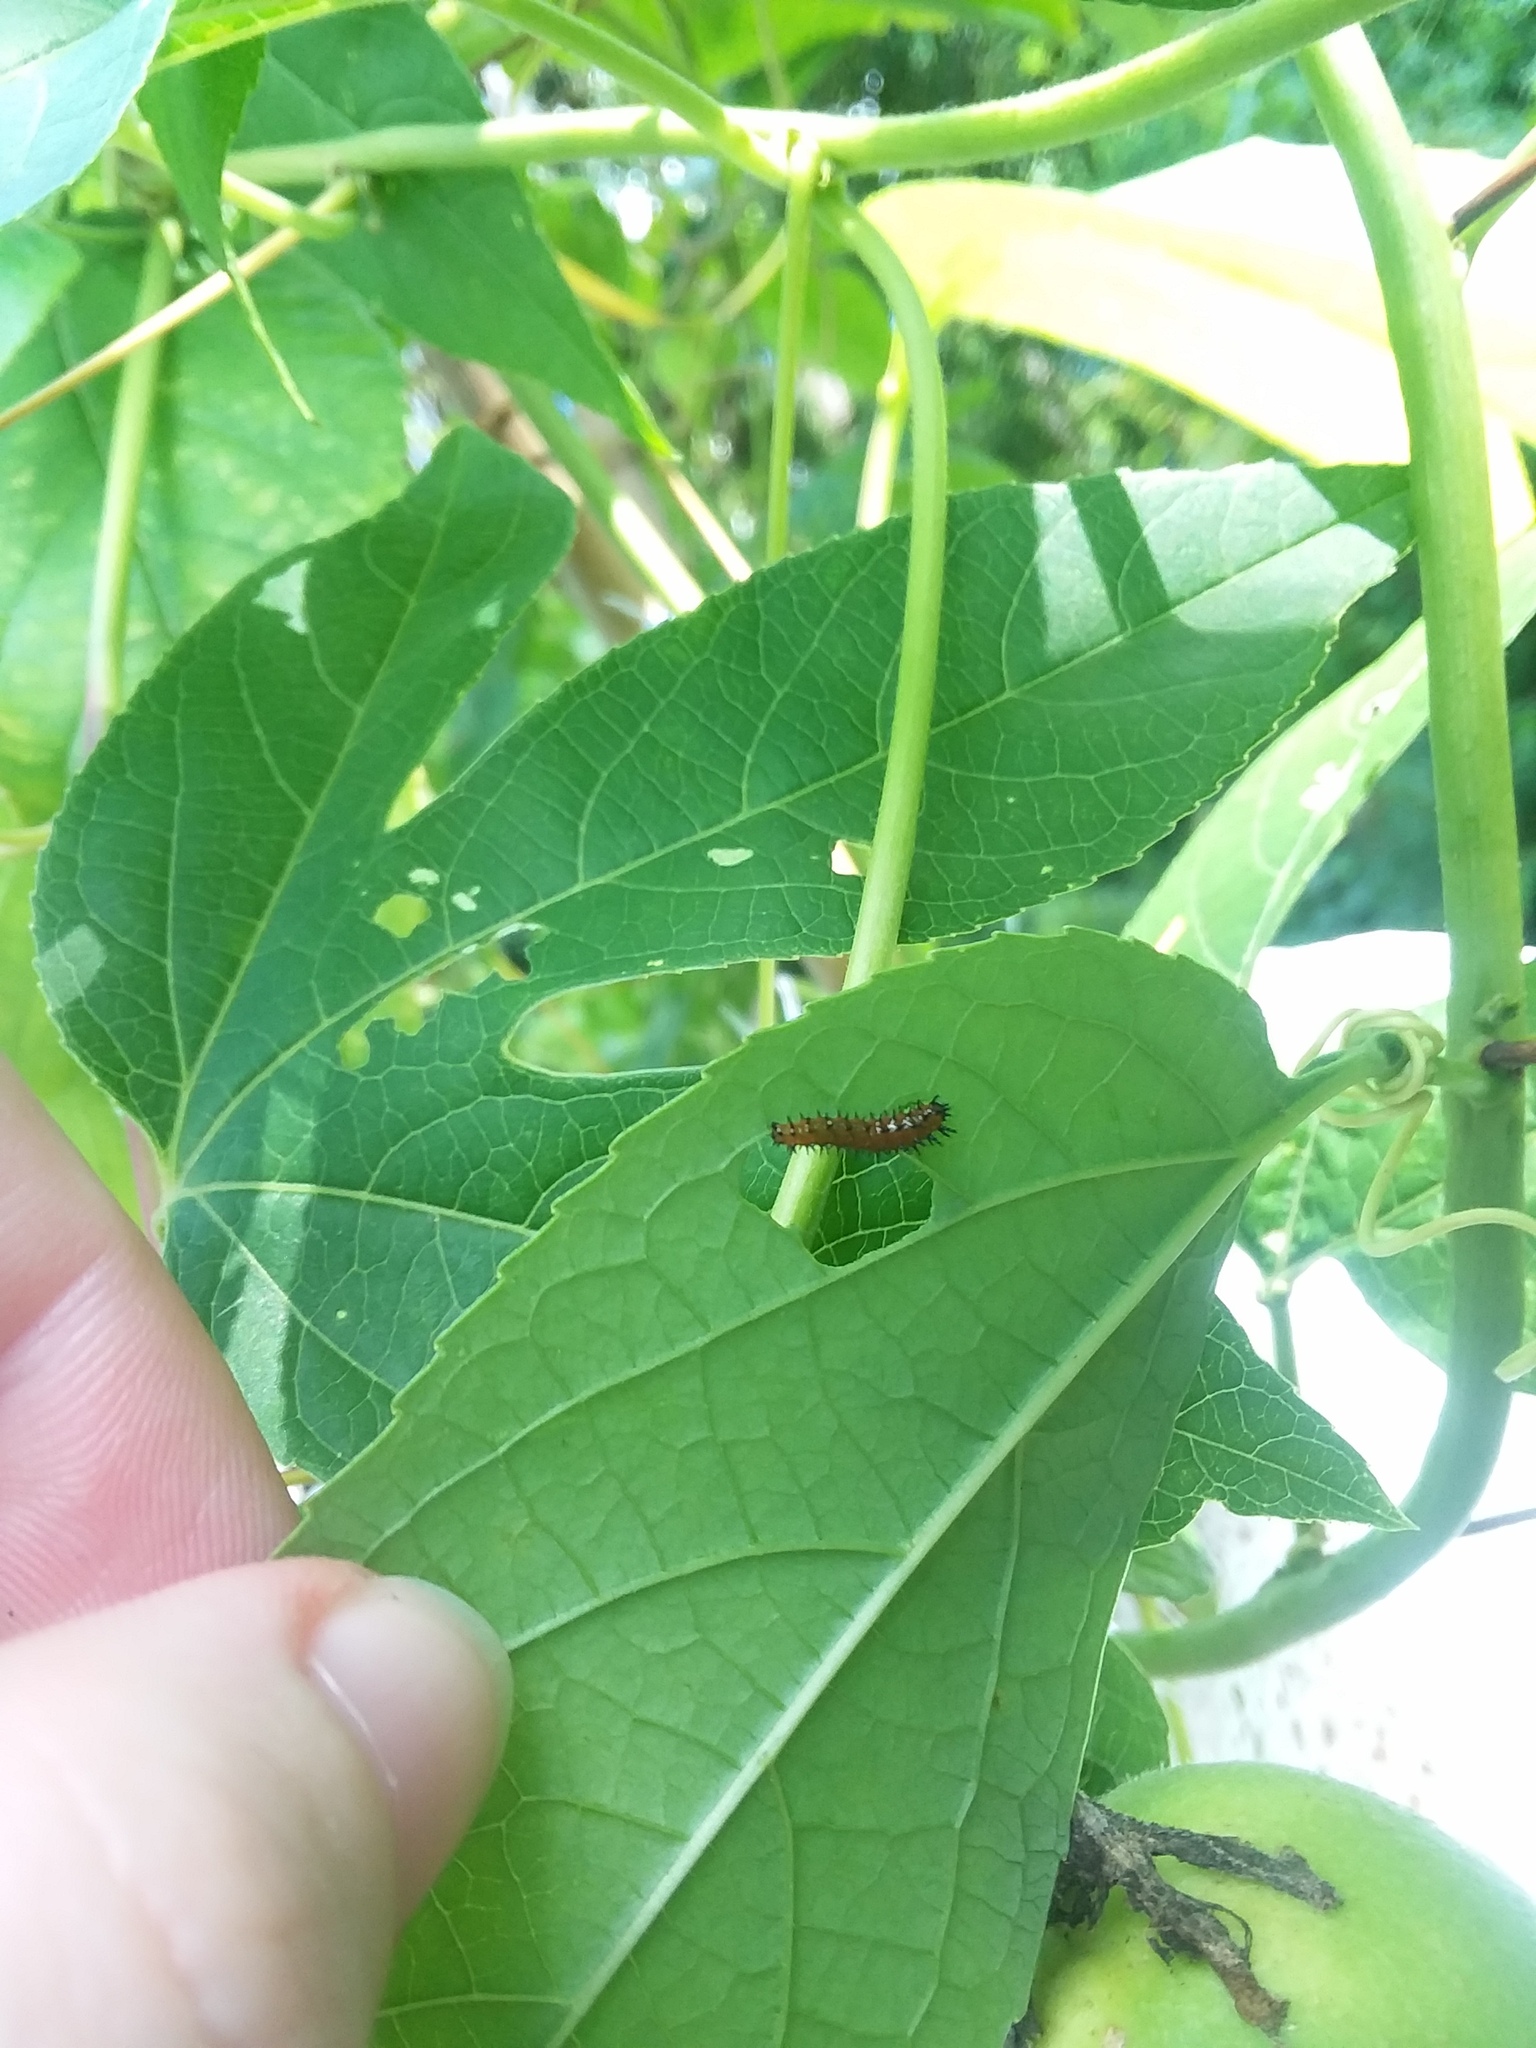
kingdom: Animalia
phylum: Arthropoda
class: Insecta
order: Lepidoptera
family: Nymphalidae
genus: Dione
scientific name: Dione vanillae
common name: Gulf fritillary
